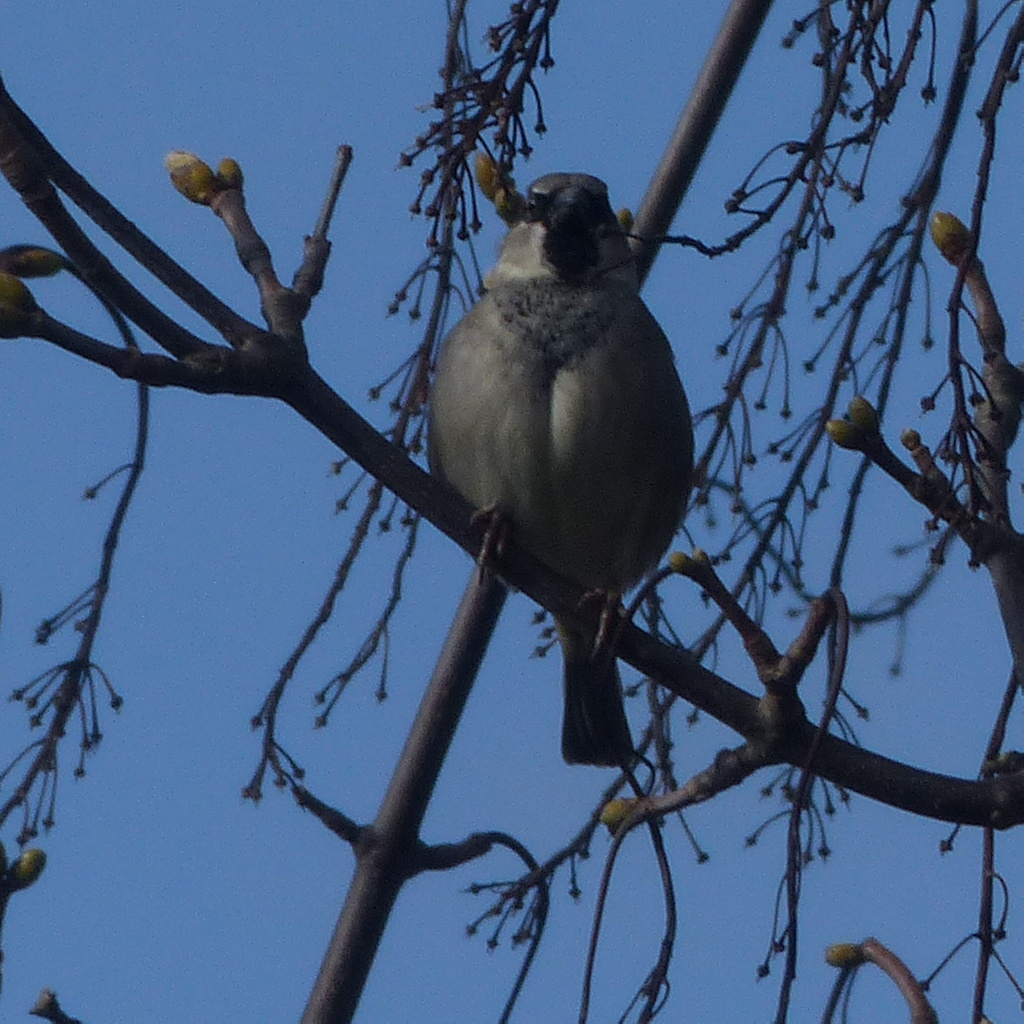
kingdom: Animalia
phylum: Chordata
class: Aves
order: Passeriformes
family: Passeridae
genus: Passer
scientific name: Passer domesticus
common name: House sparrow
